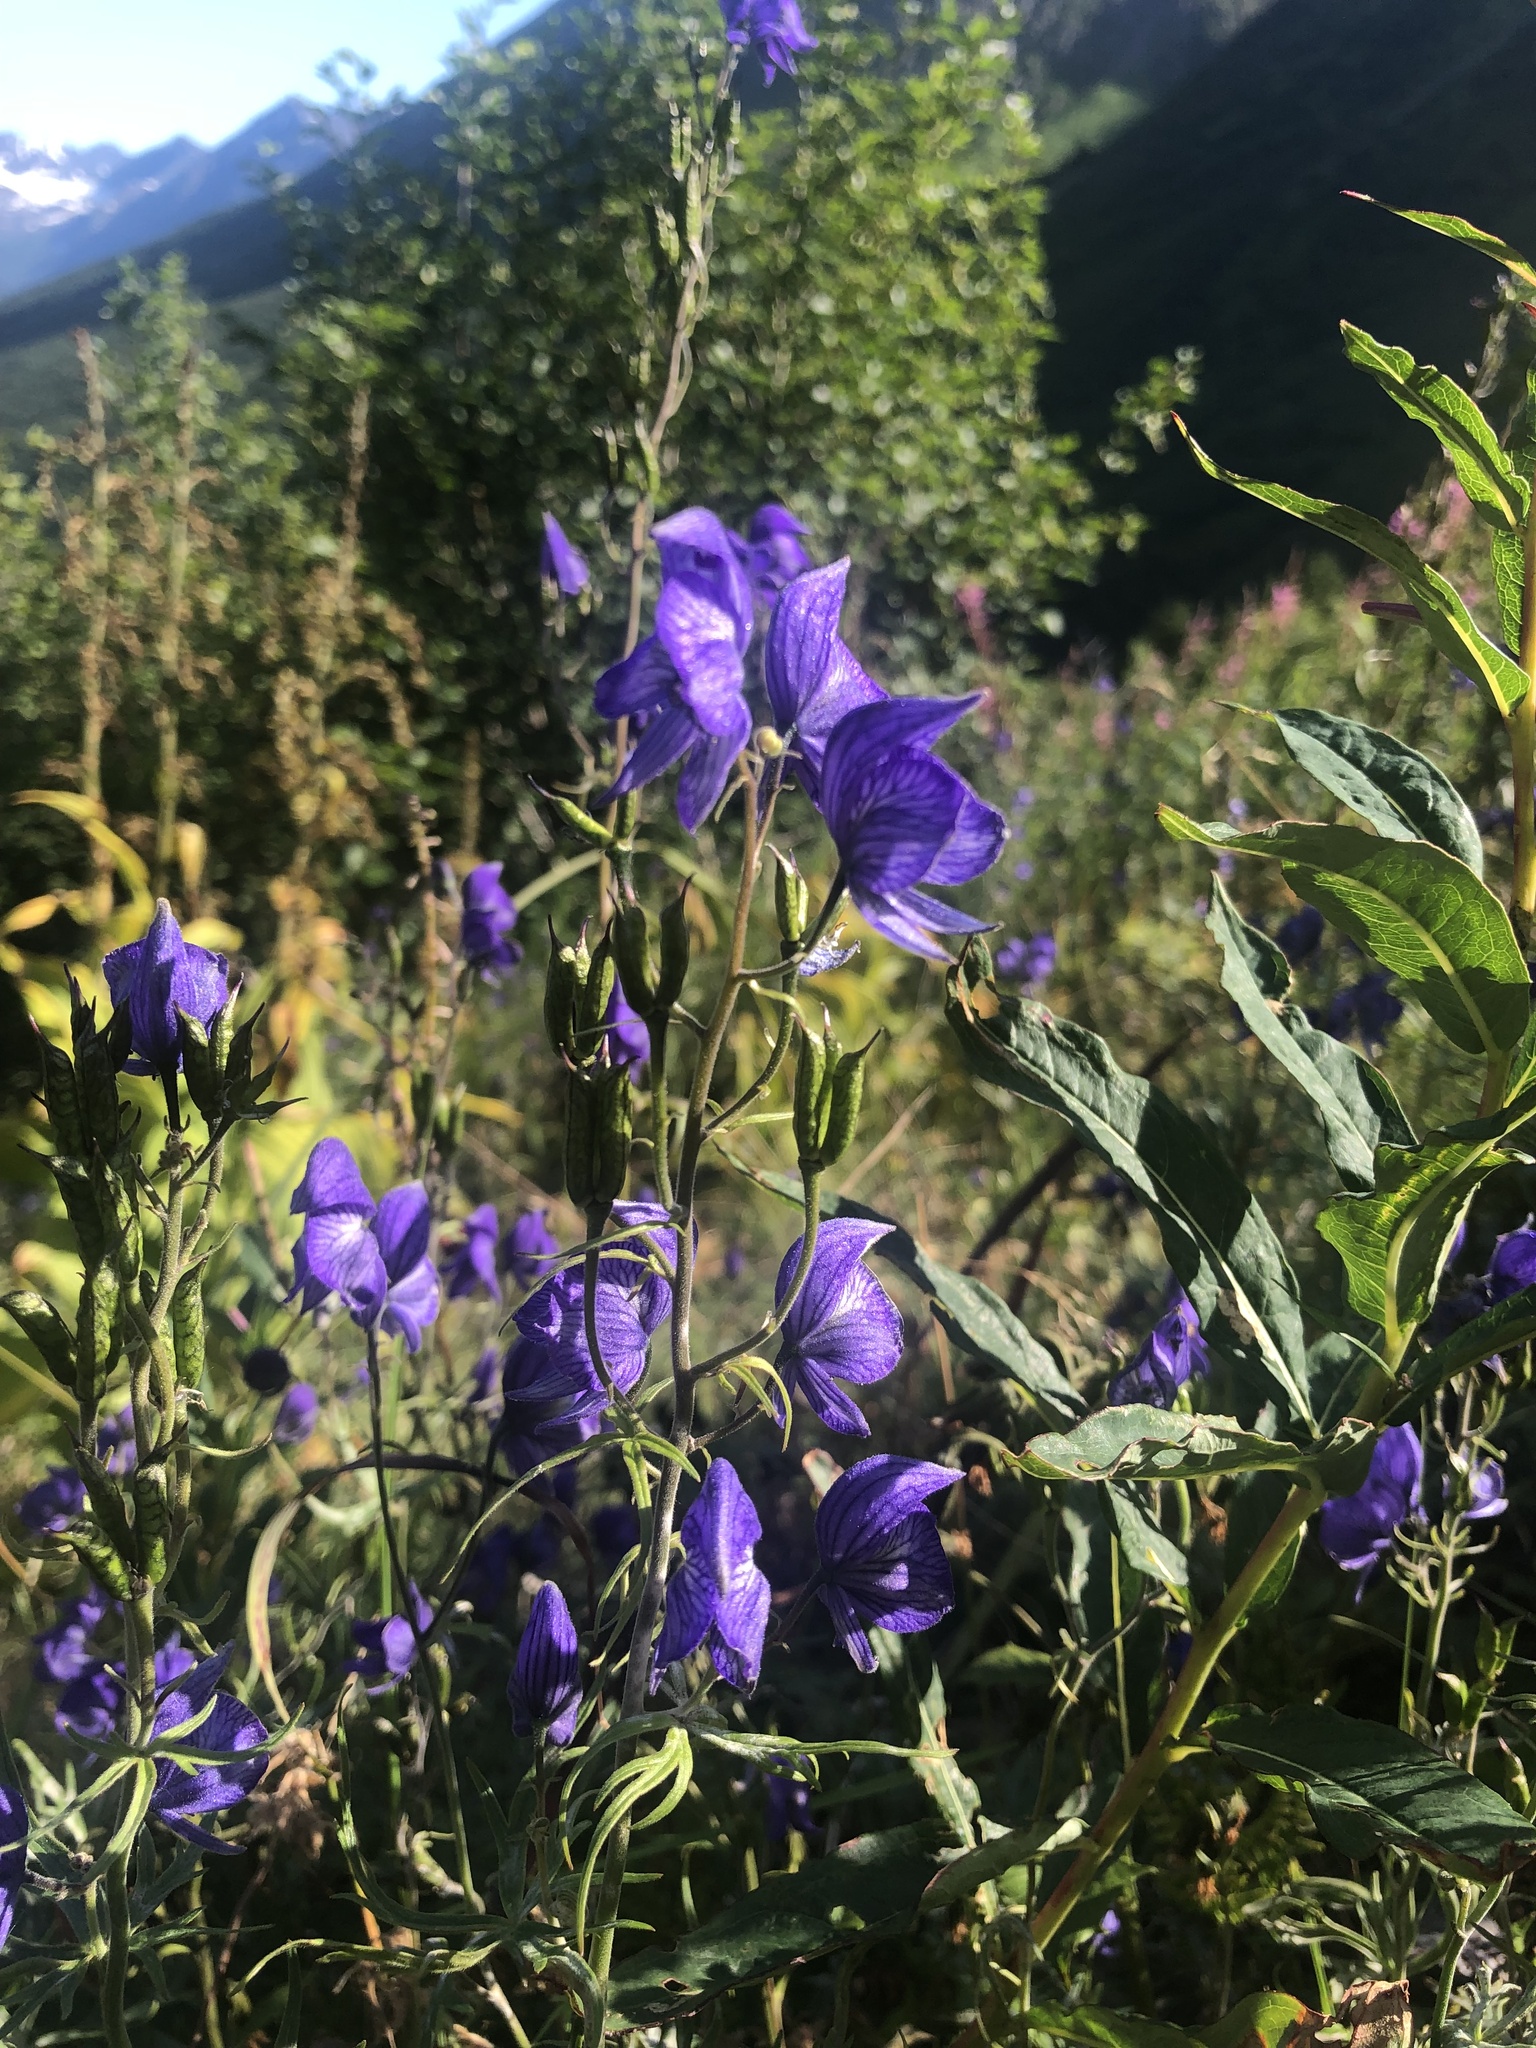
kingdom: Plantae
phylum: Tracheophyta
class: Magnoliopsida
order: Ranunculales
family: Ranunculaceae
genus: Aconitum
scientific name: Aconitum delphiniifolium
